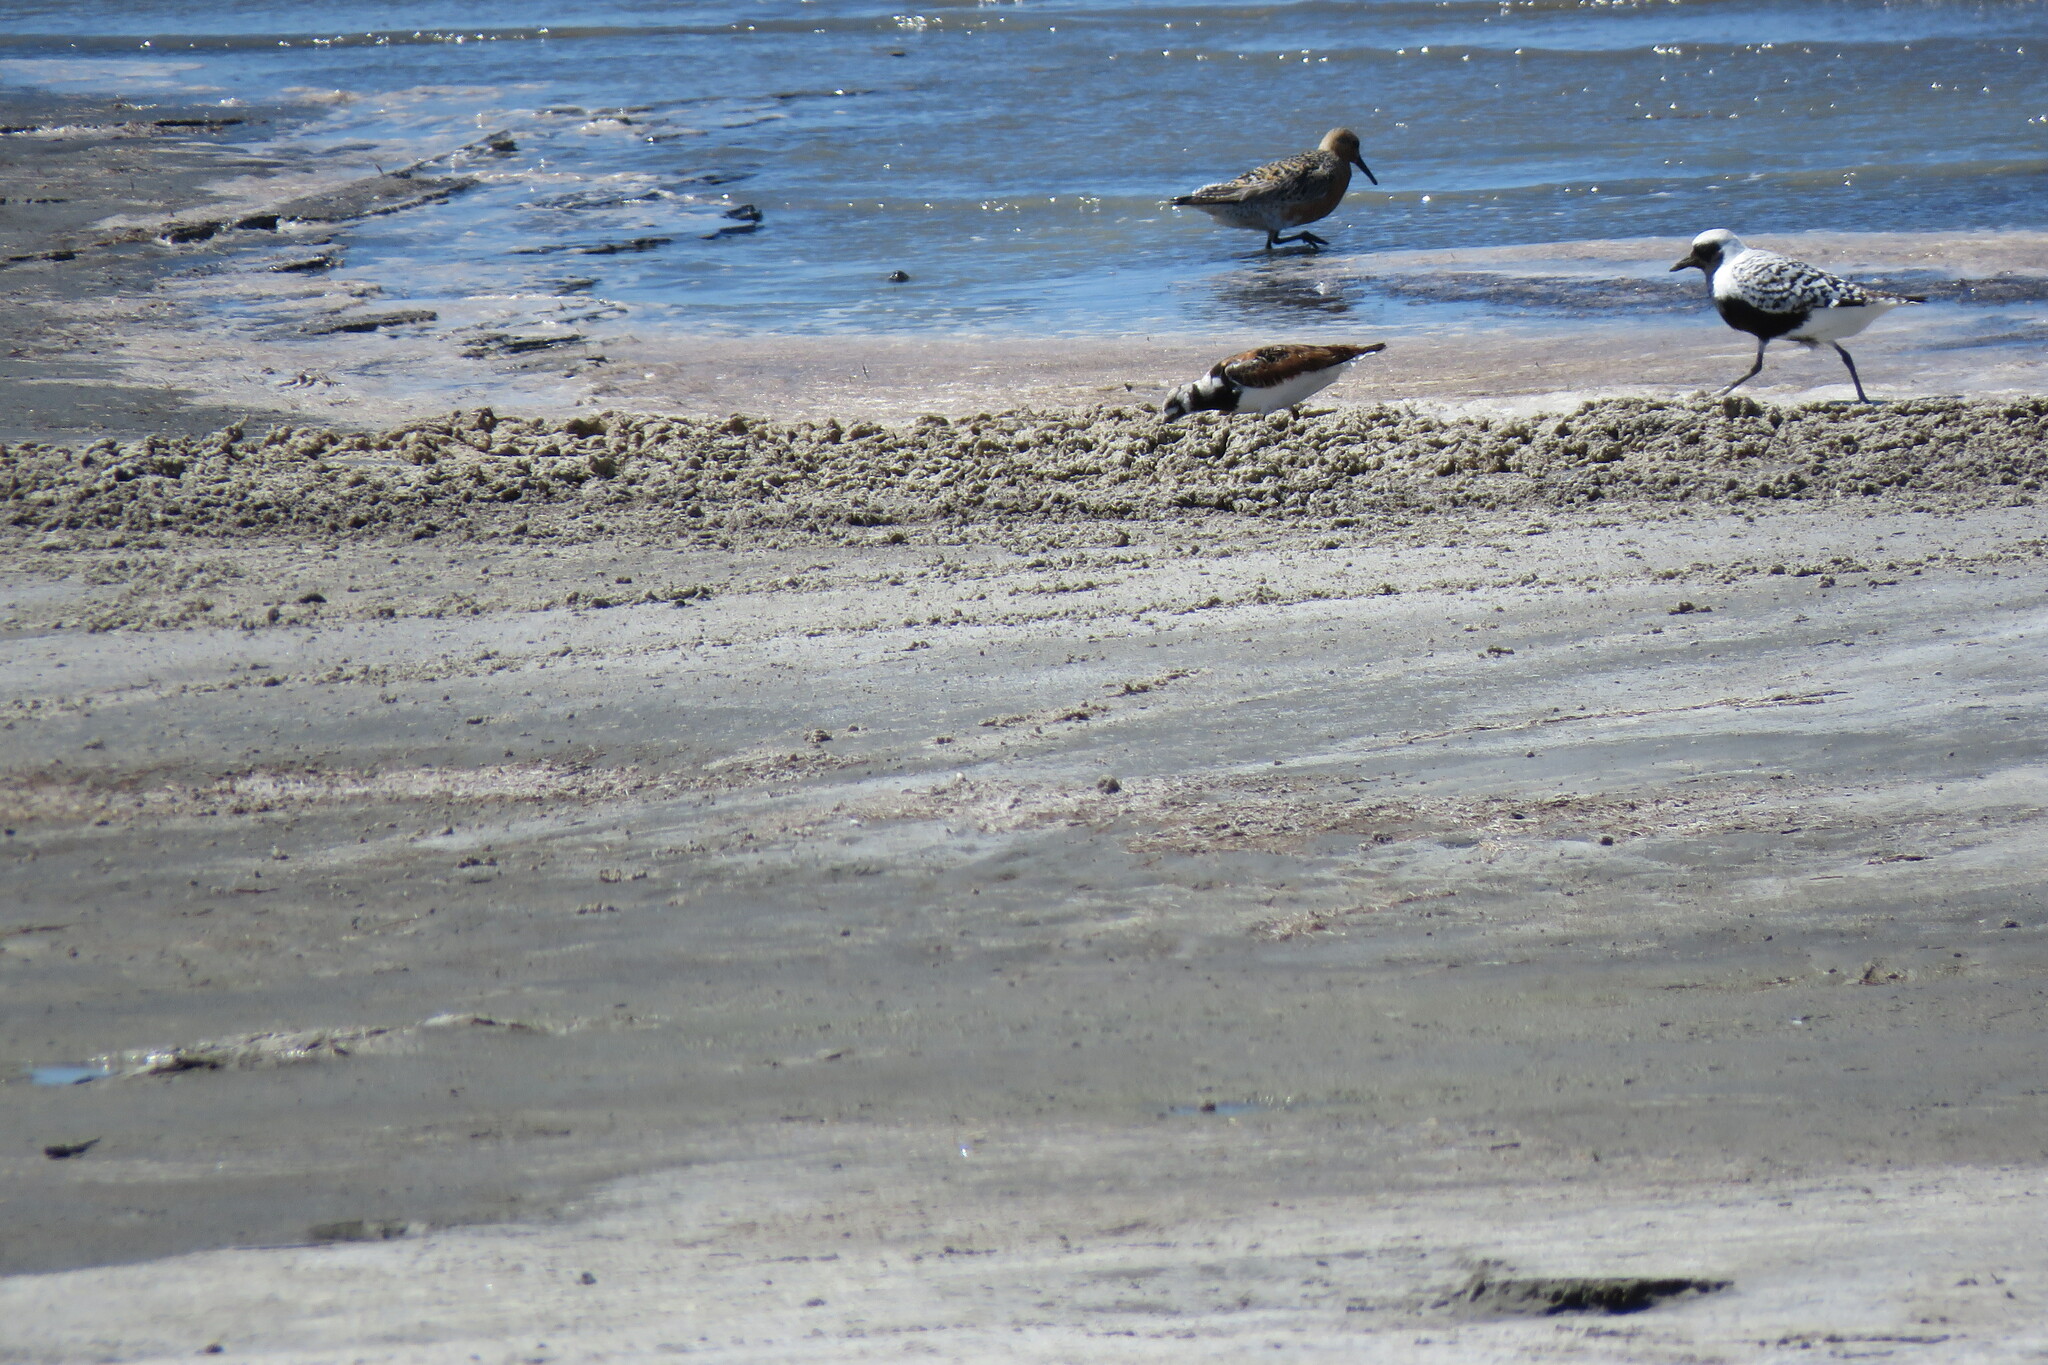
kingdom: Animalia
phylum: Chordata
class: Aves
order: Charadriiformes
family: Scolopacidae
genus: Arenaria
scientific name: Arenaria interpres
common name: Ruddy turnstone
